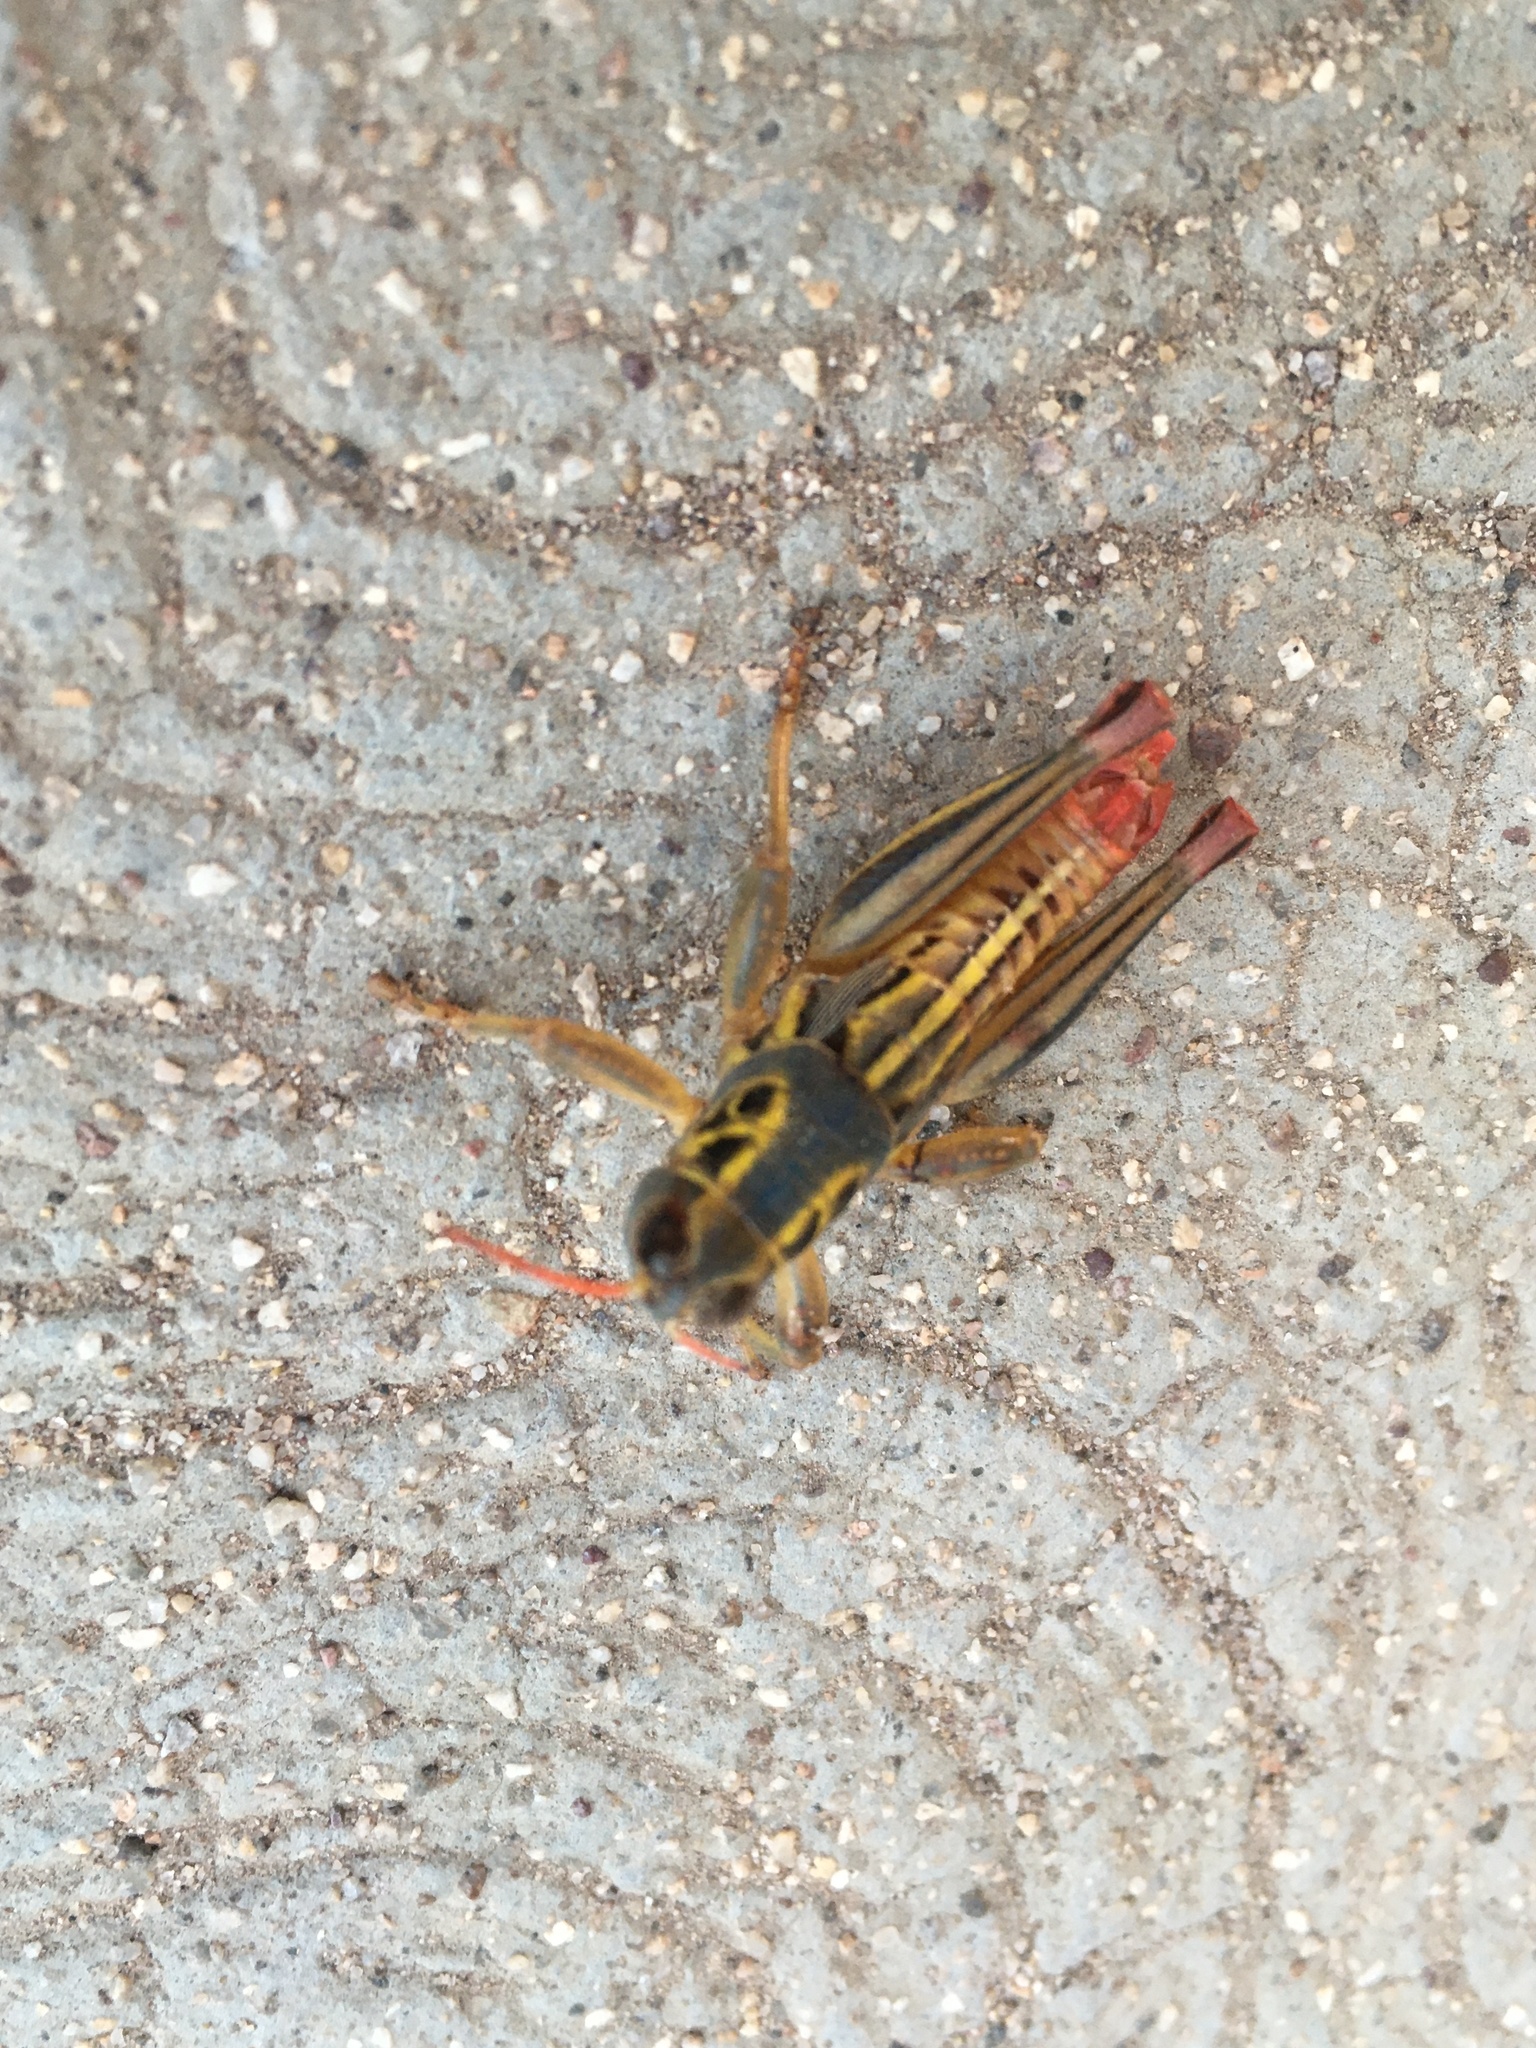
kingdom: Animalia
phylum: Arthropoda
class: Insecta
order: Orthoptera
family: Acrididae
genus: Barytettix
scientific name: Barytettix humphreysii
